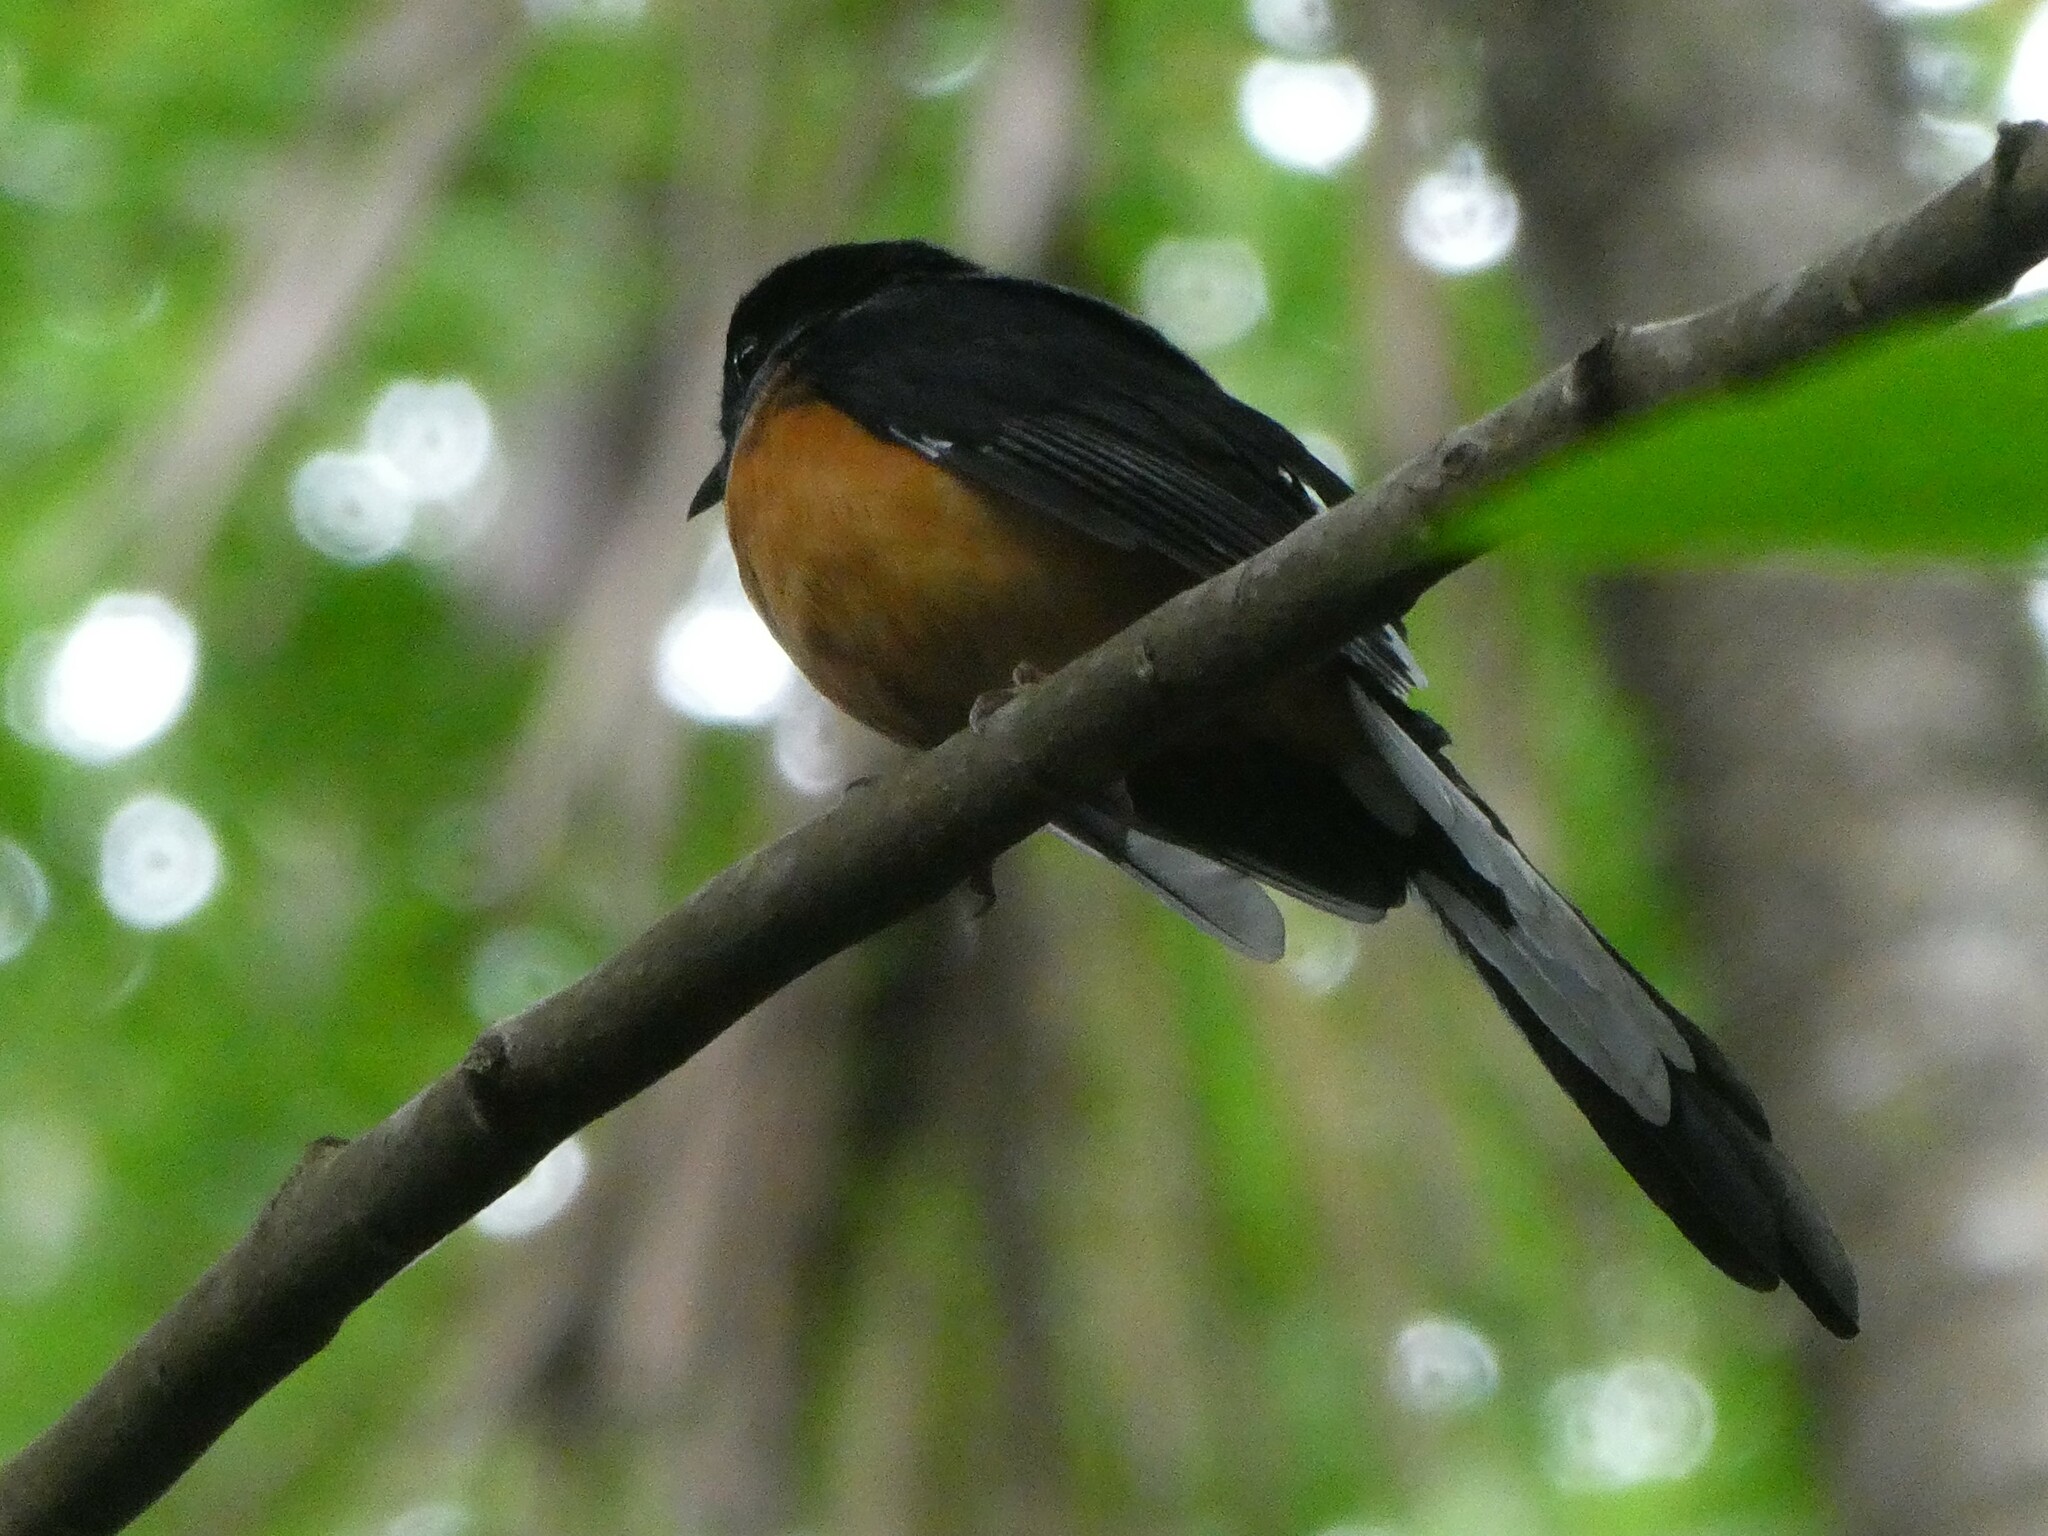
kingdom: Animalia
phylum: Chordata
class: Aves
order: Passeriformes
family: Muscicapidae
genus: Copsychus
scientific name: Copsychus malabaricus
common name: White-rumped shama
